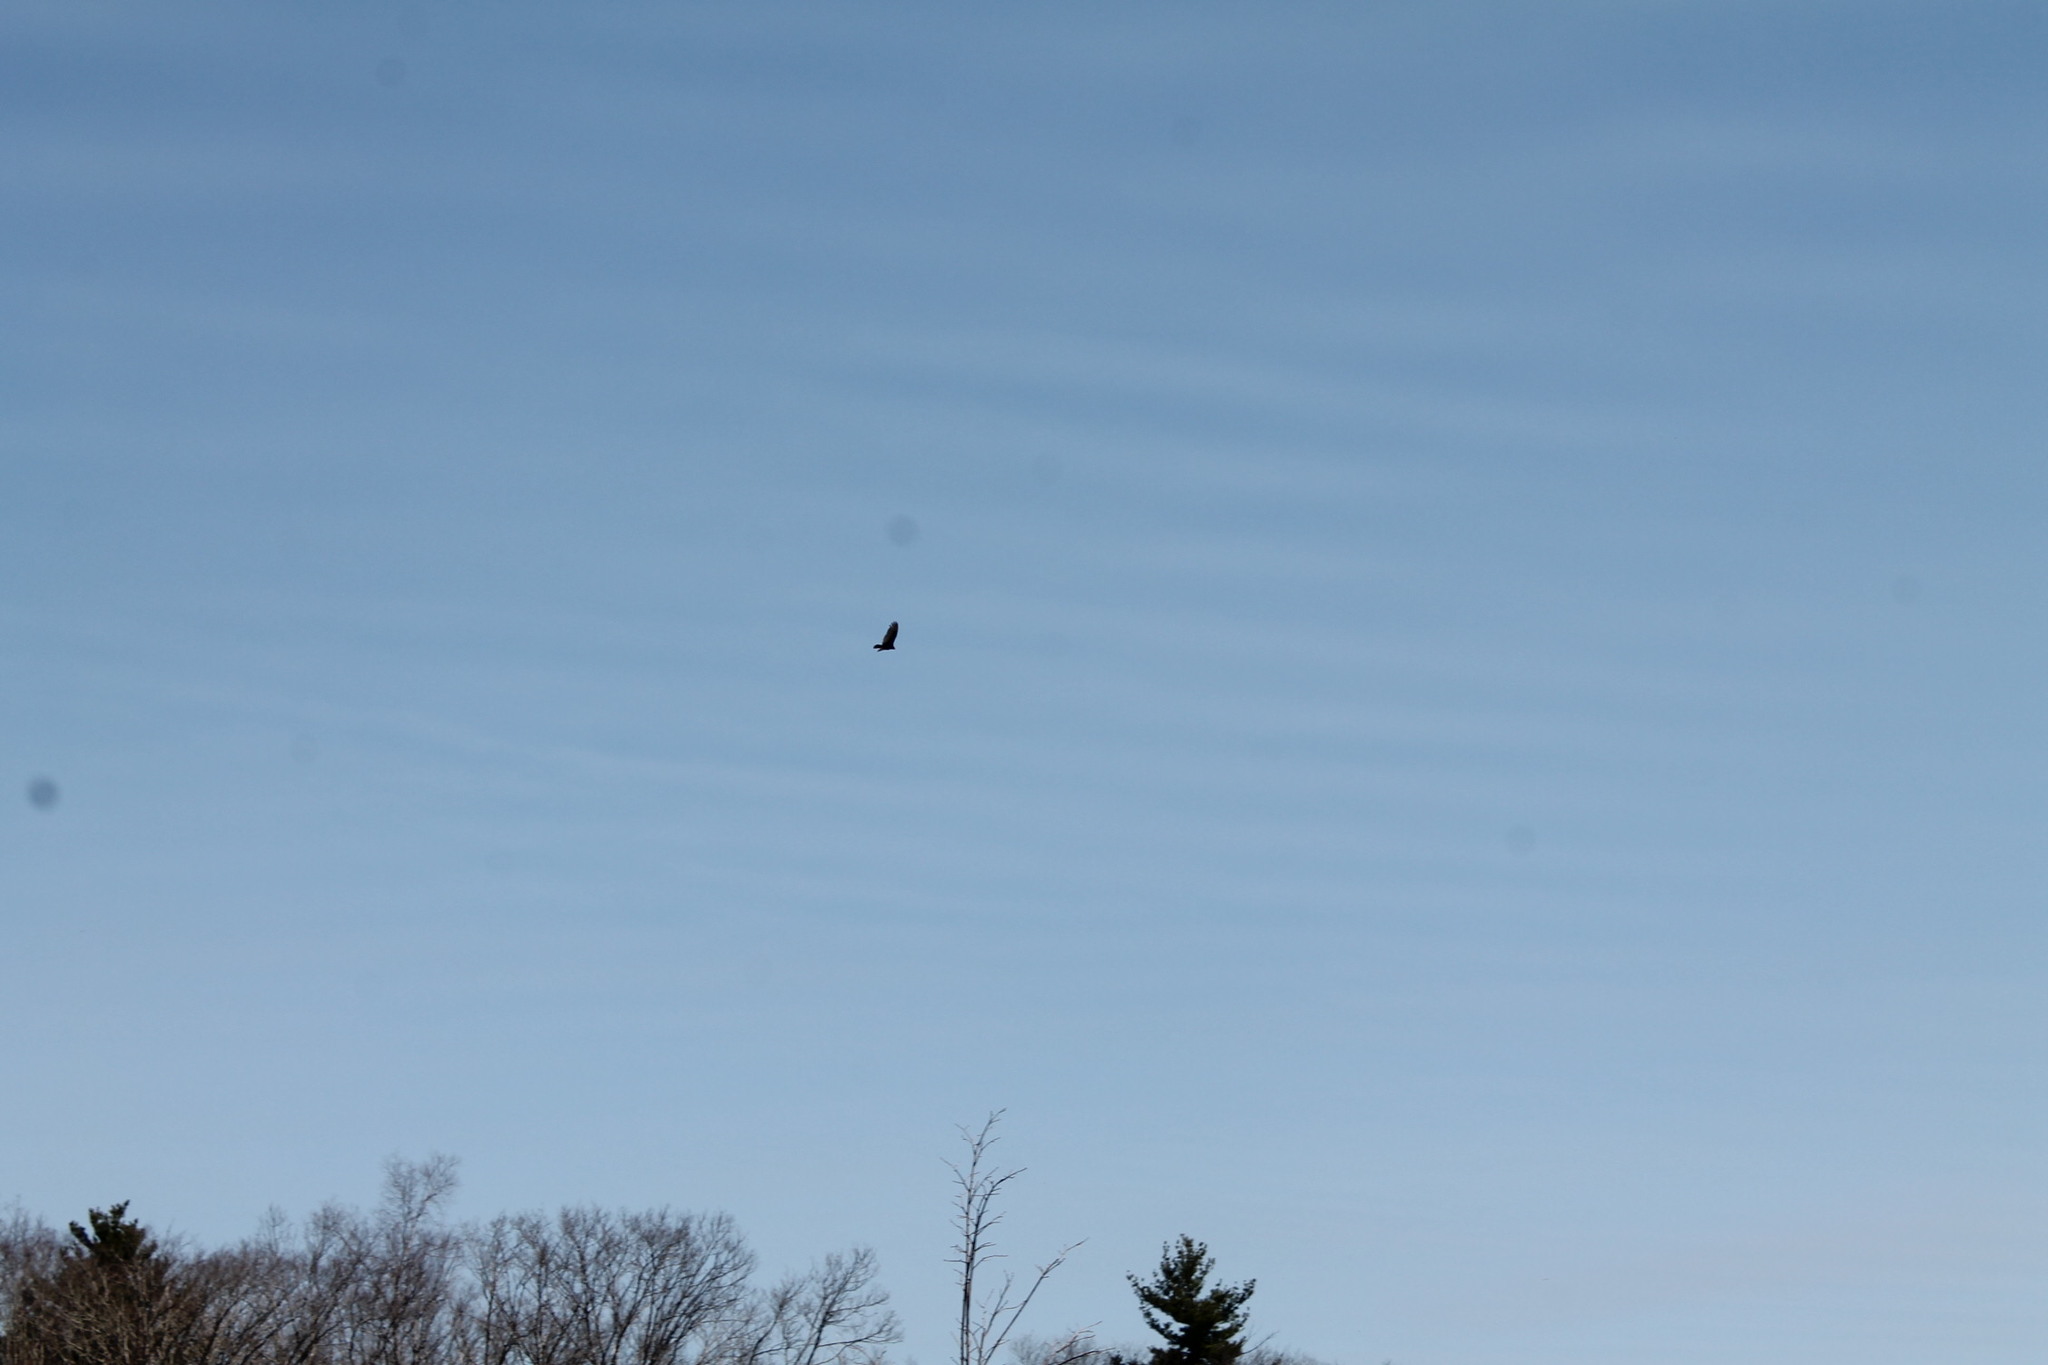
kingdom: Animalia
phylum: Chordata
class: Aves
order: Accipitriformes
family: Cathartidae
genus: Cathartes
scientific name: Cathartes aura
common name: Turkey vulture
